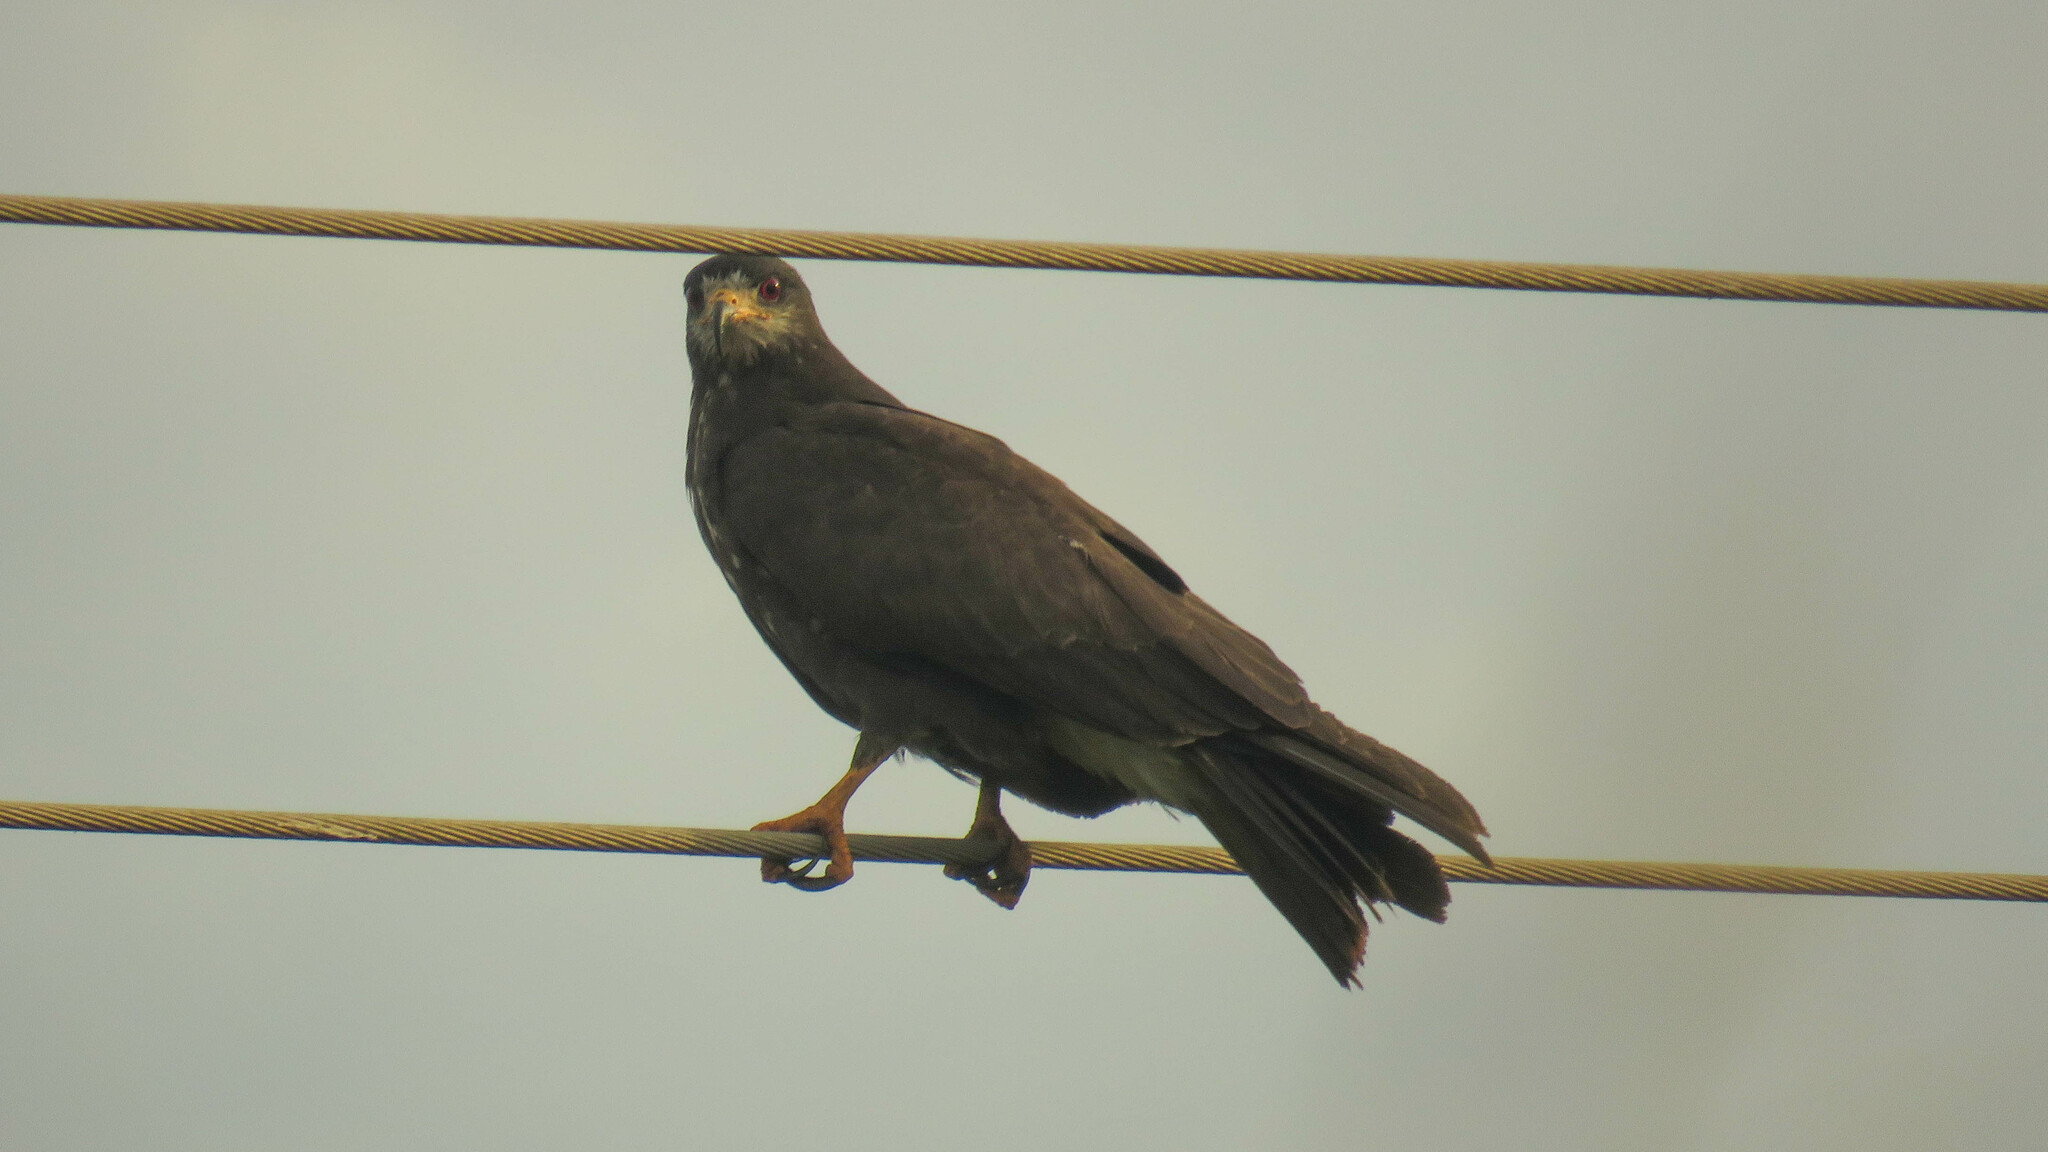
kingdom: Animalia
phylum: Chordata
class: Aves
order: Accipitriformes
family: Accipitridae
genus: Rostrhamus
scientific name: Rostrhamus sociabilis
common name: Snail kite
